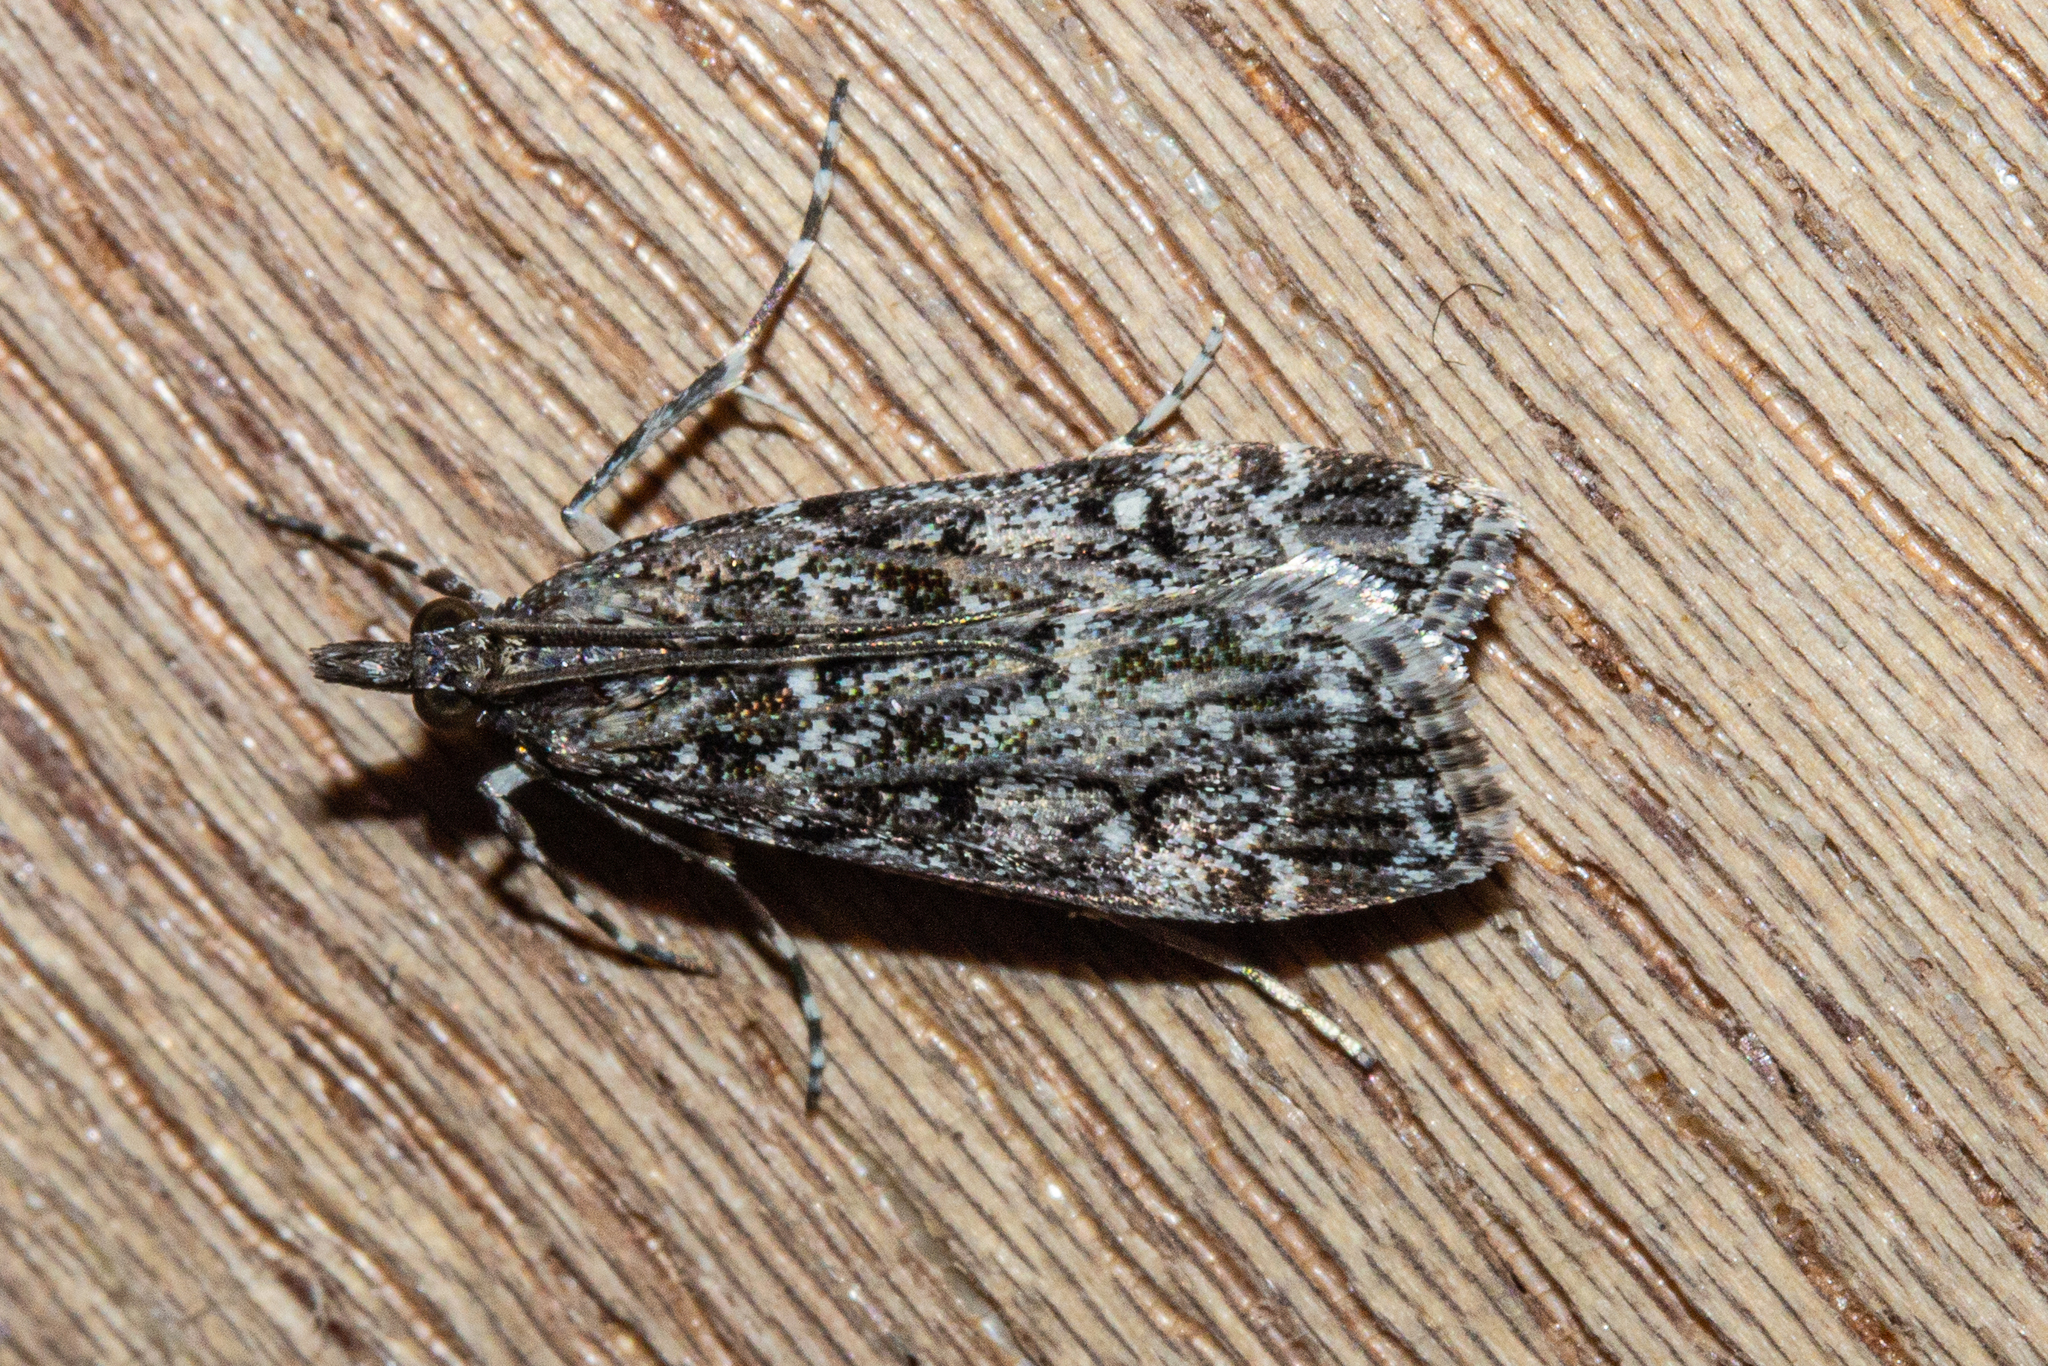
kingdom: Animalia
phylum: Arthropoda
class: Insecta
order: Lepidoptera
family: Crambidae
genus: Eudonia
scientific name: Eudonia philerga
